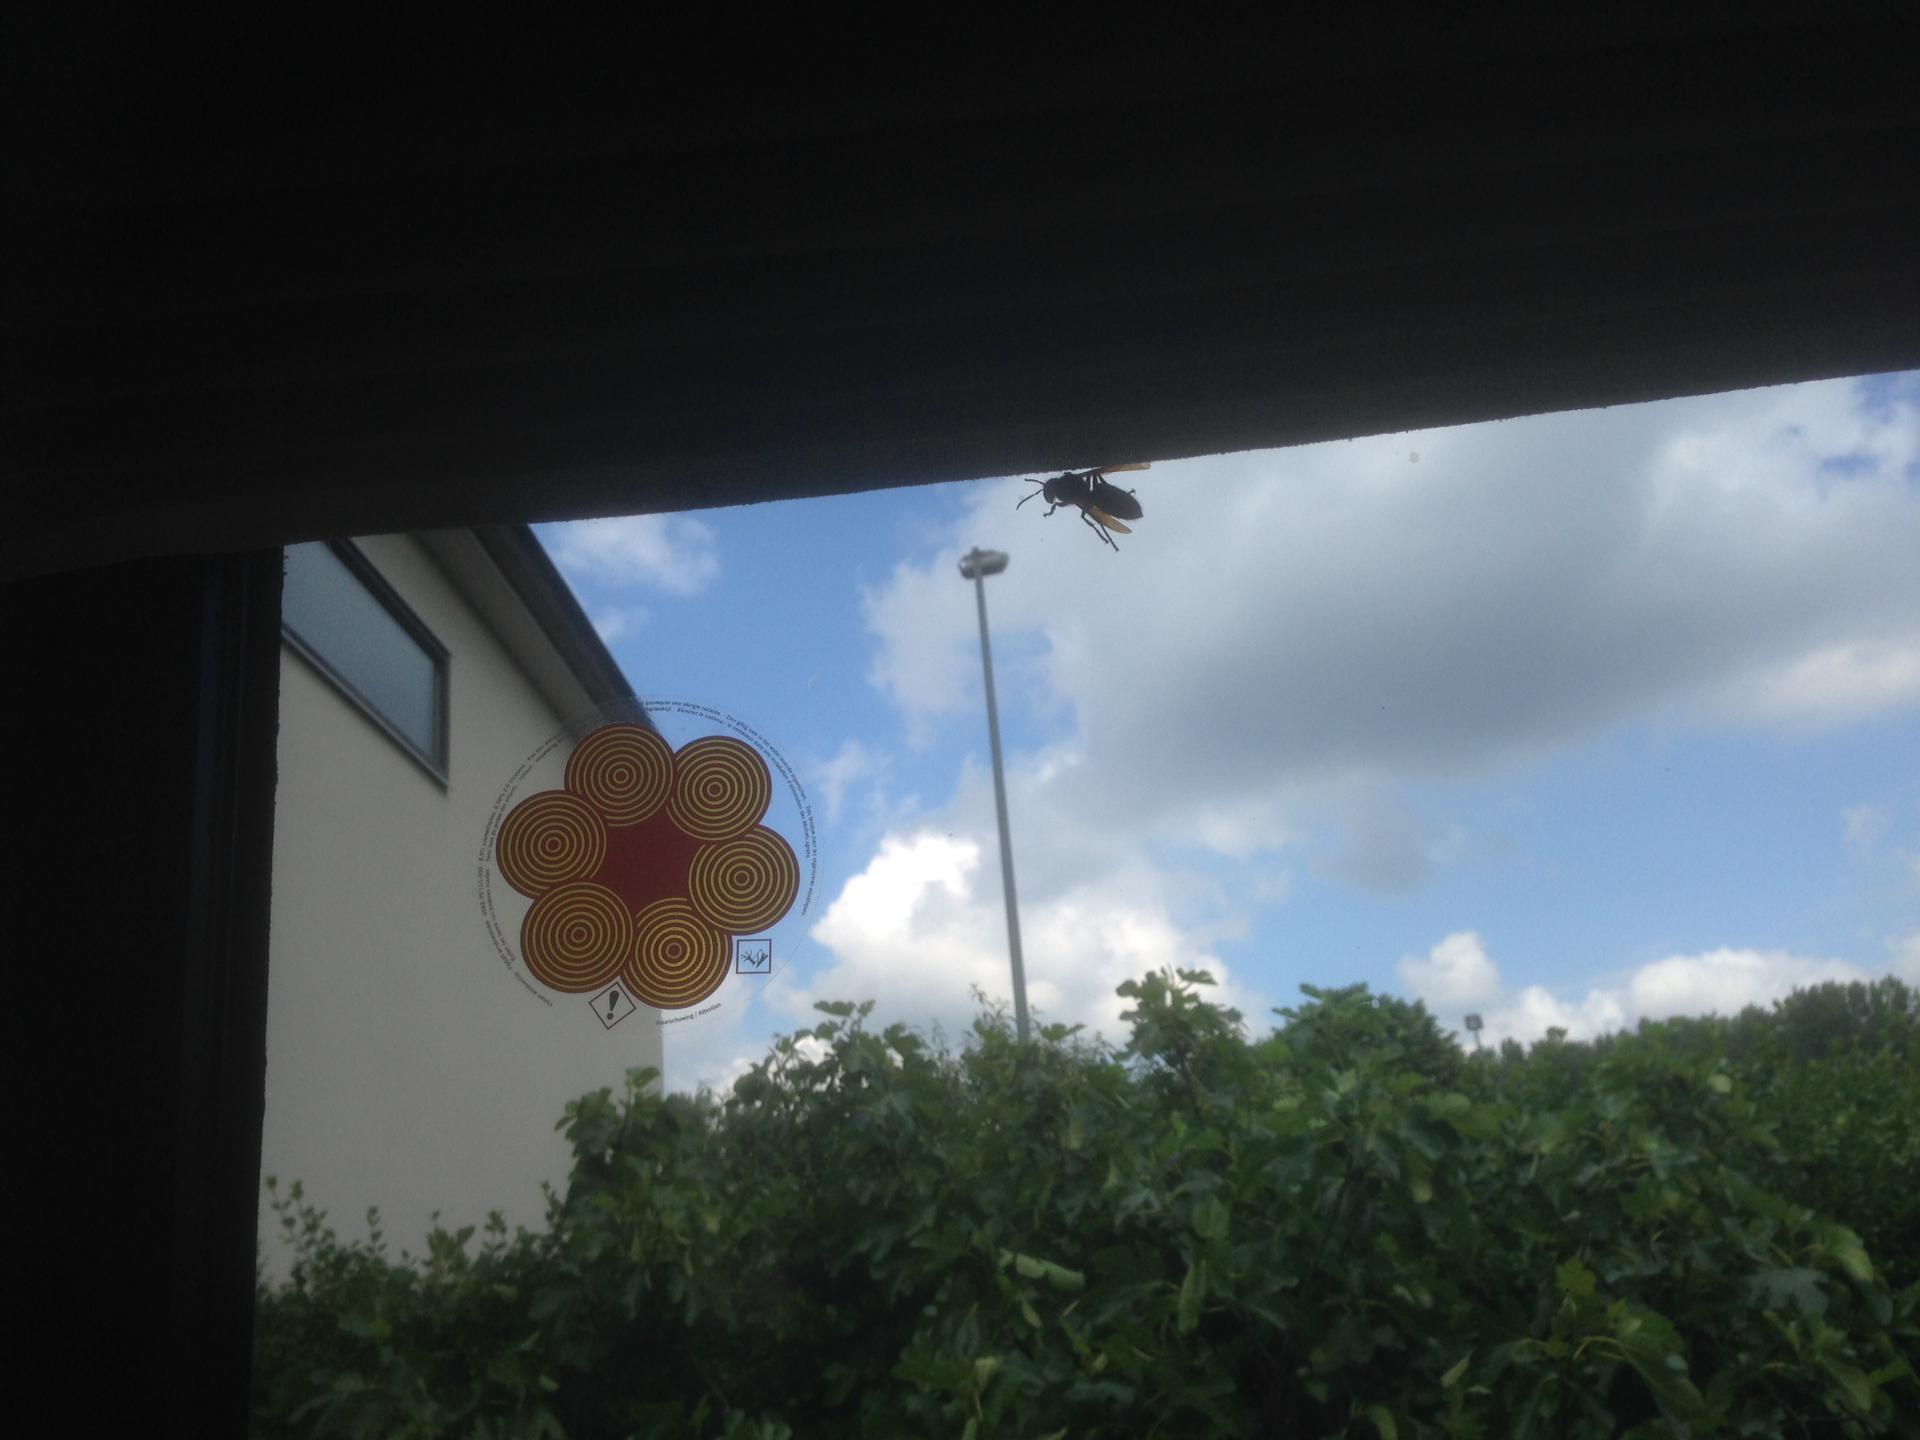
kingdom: Animalia
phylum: Arthropoda
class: Insecta
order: Hymenoptera
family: Vespidae
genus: Vespa
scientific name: Vespa crabro
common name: Hornet
